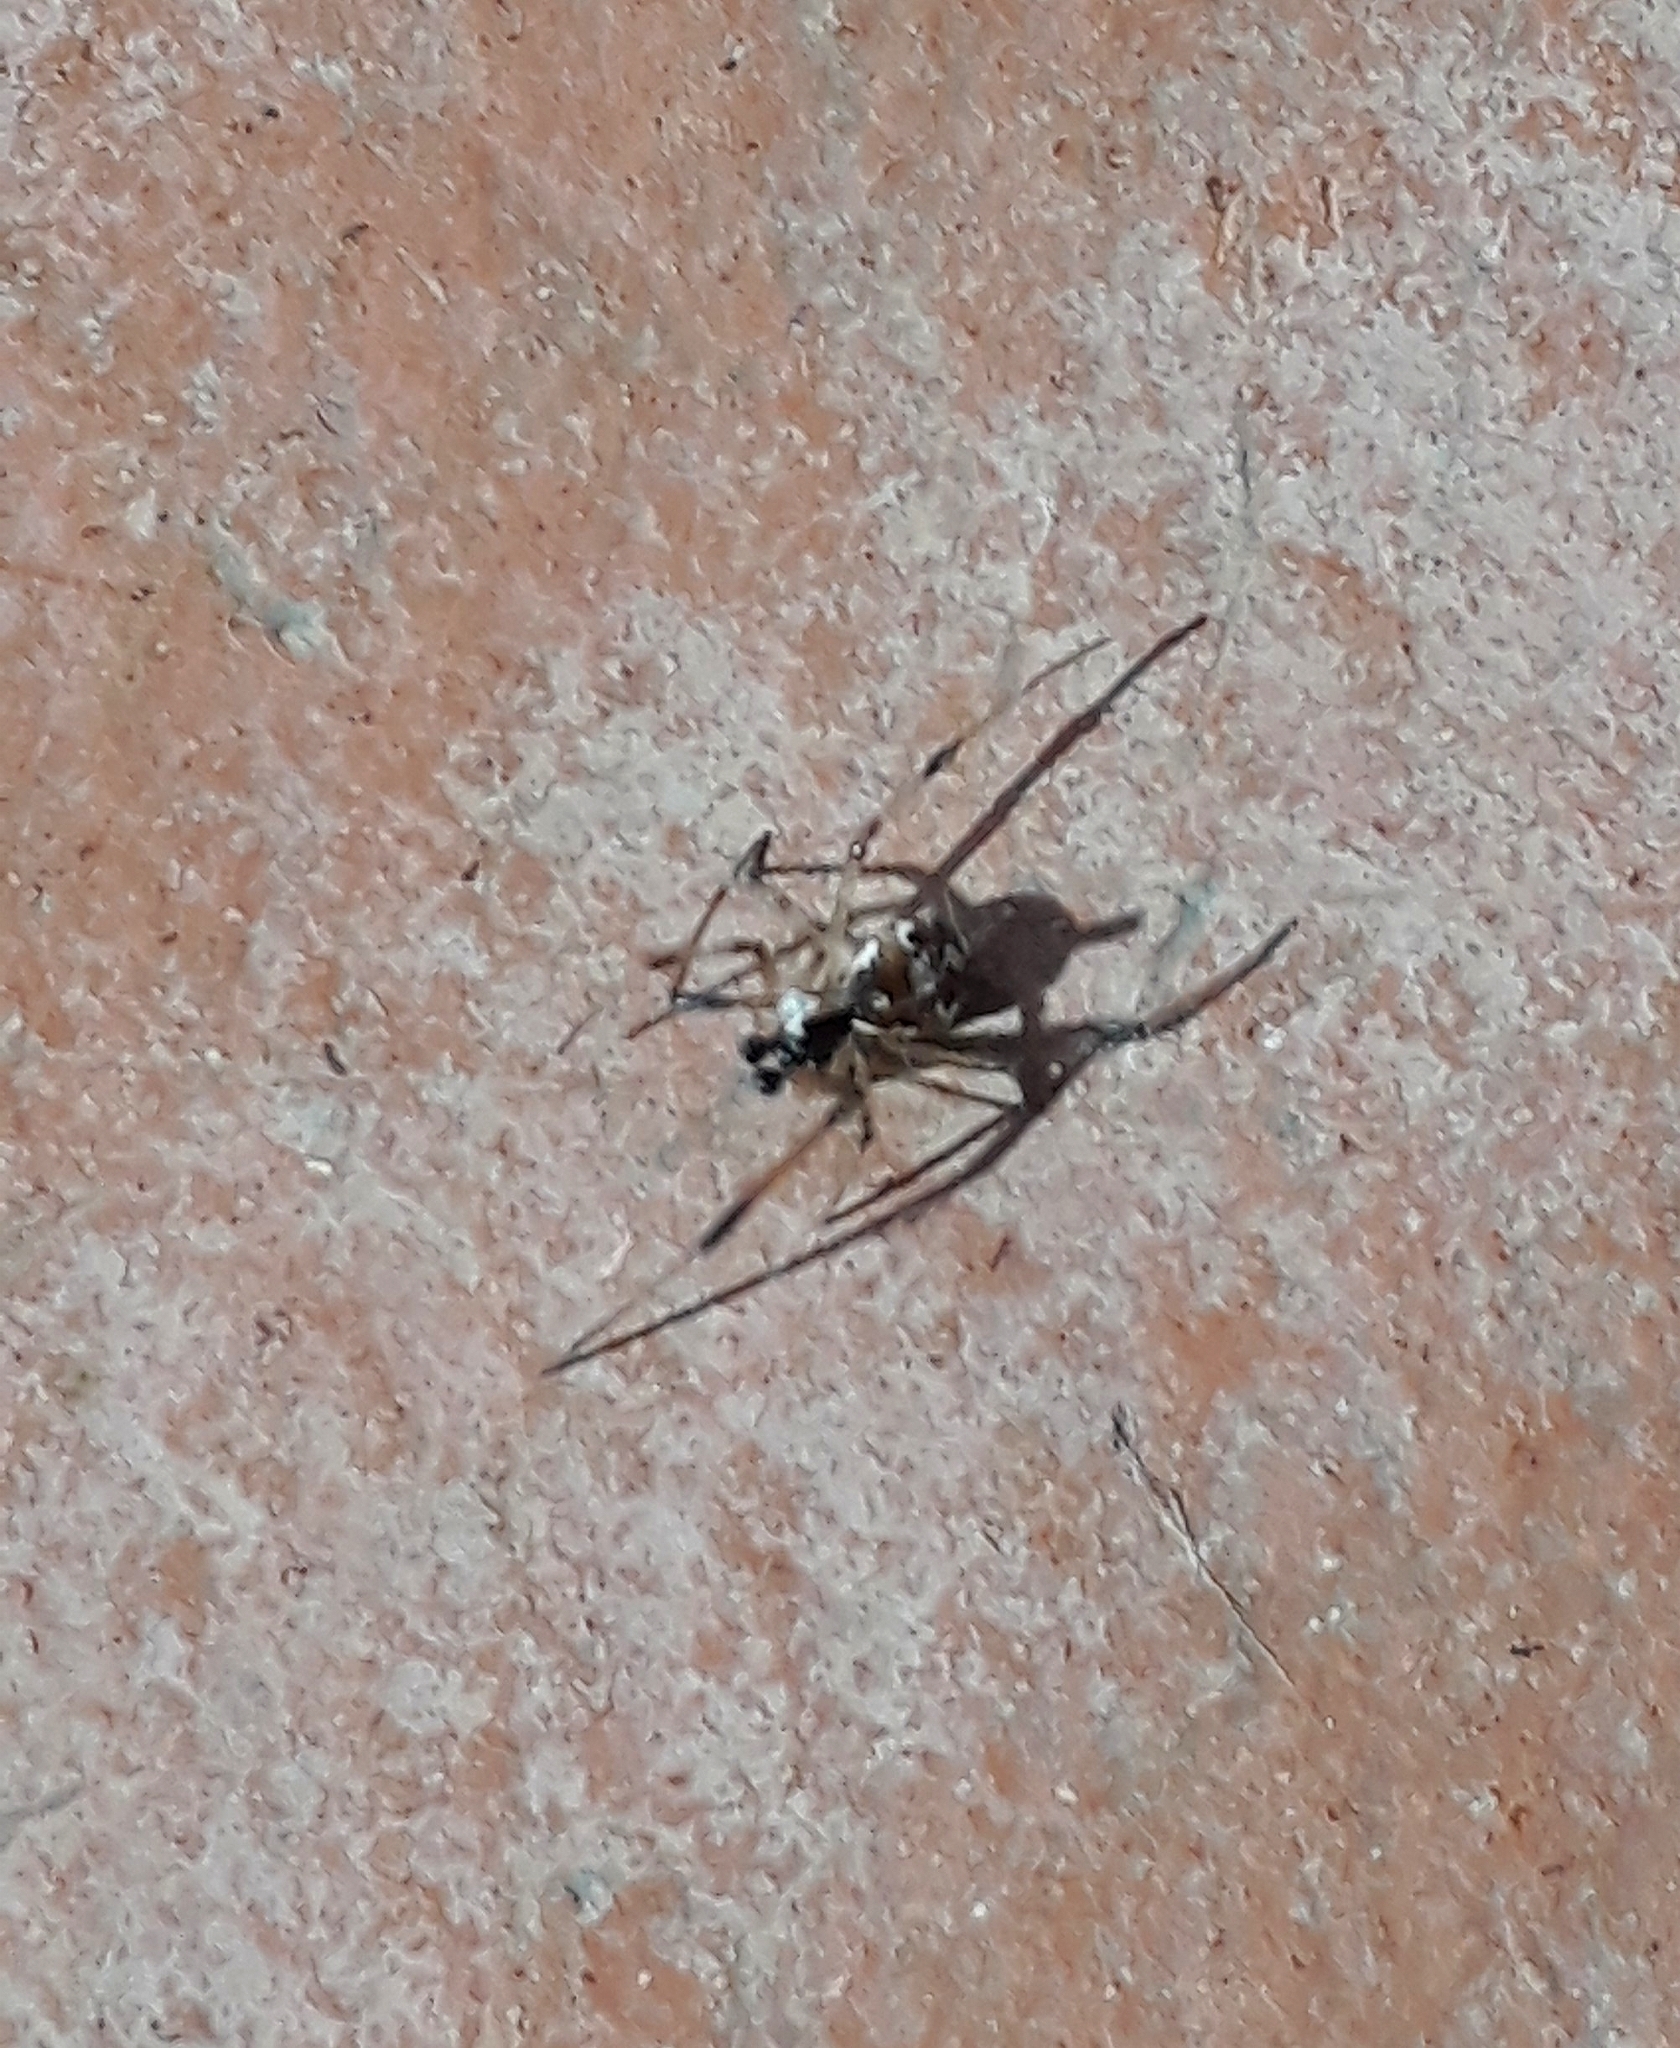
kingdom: Animalia
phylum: Arthropoda
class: Arachnida
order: Araneae
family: Theridiidae
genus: Latrodectus
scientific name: Latrodectus geometricus
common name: Brown widow spider
